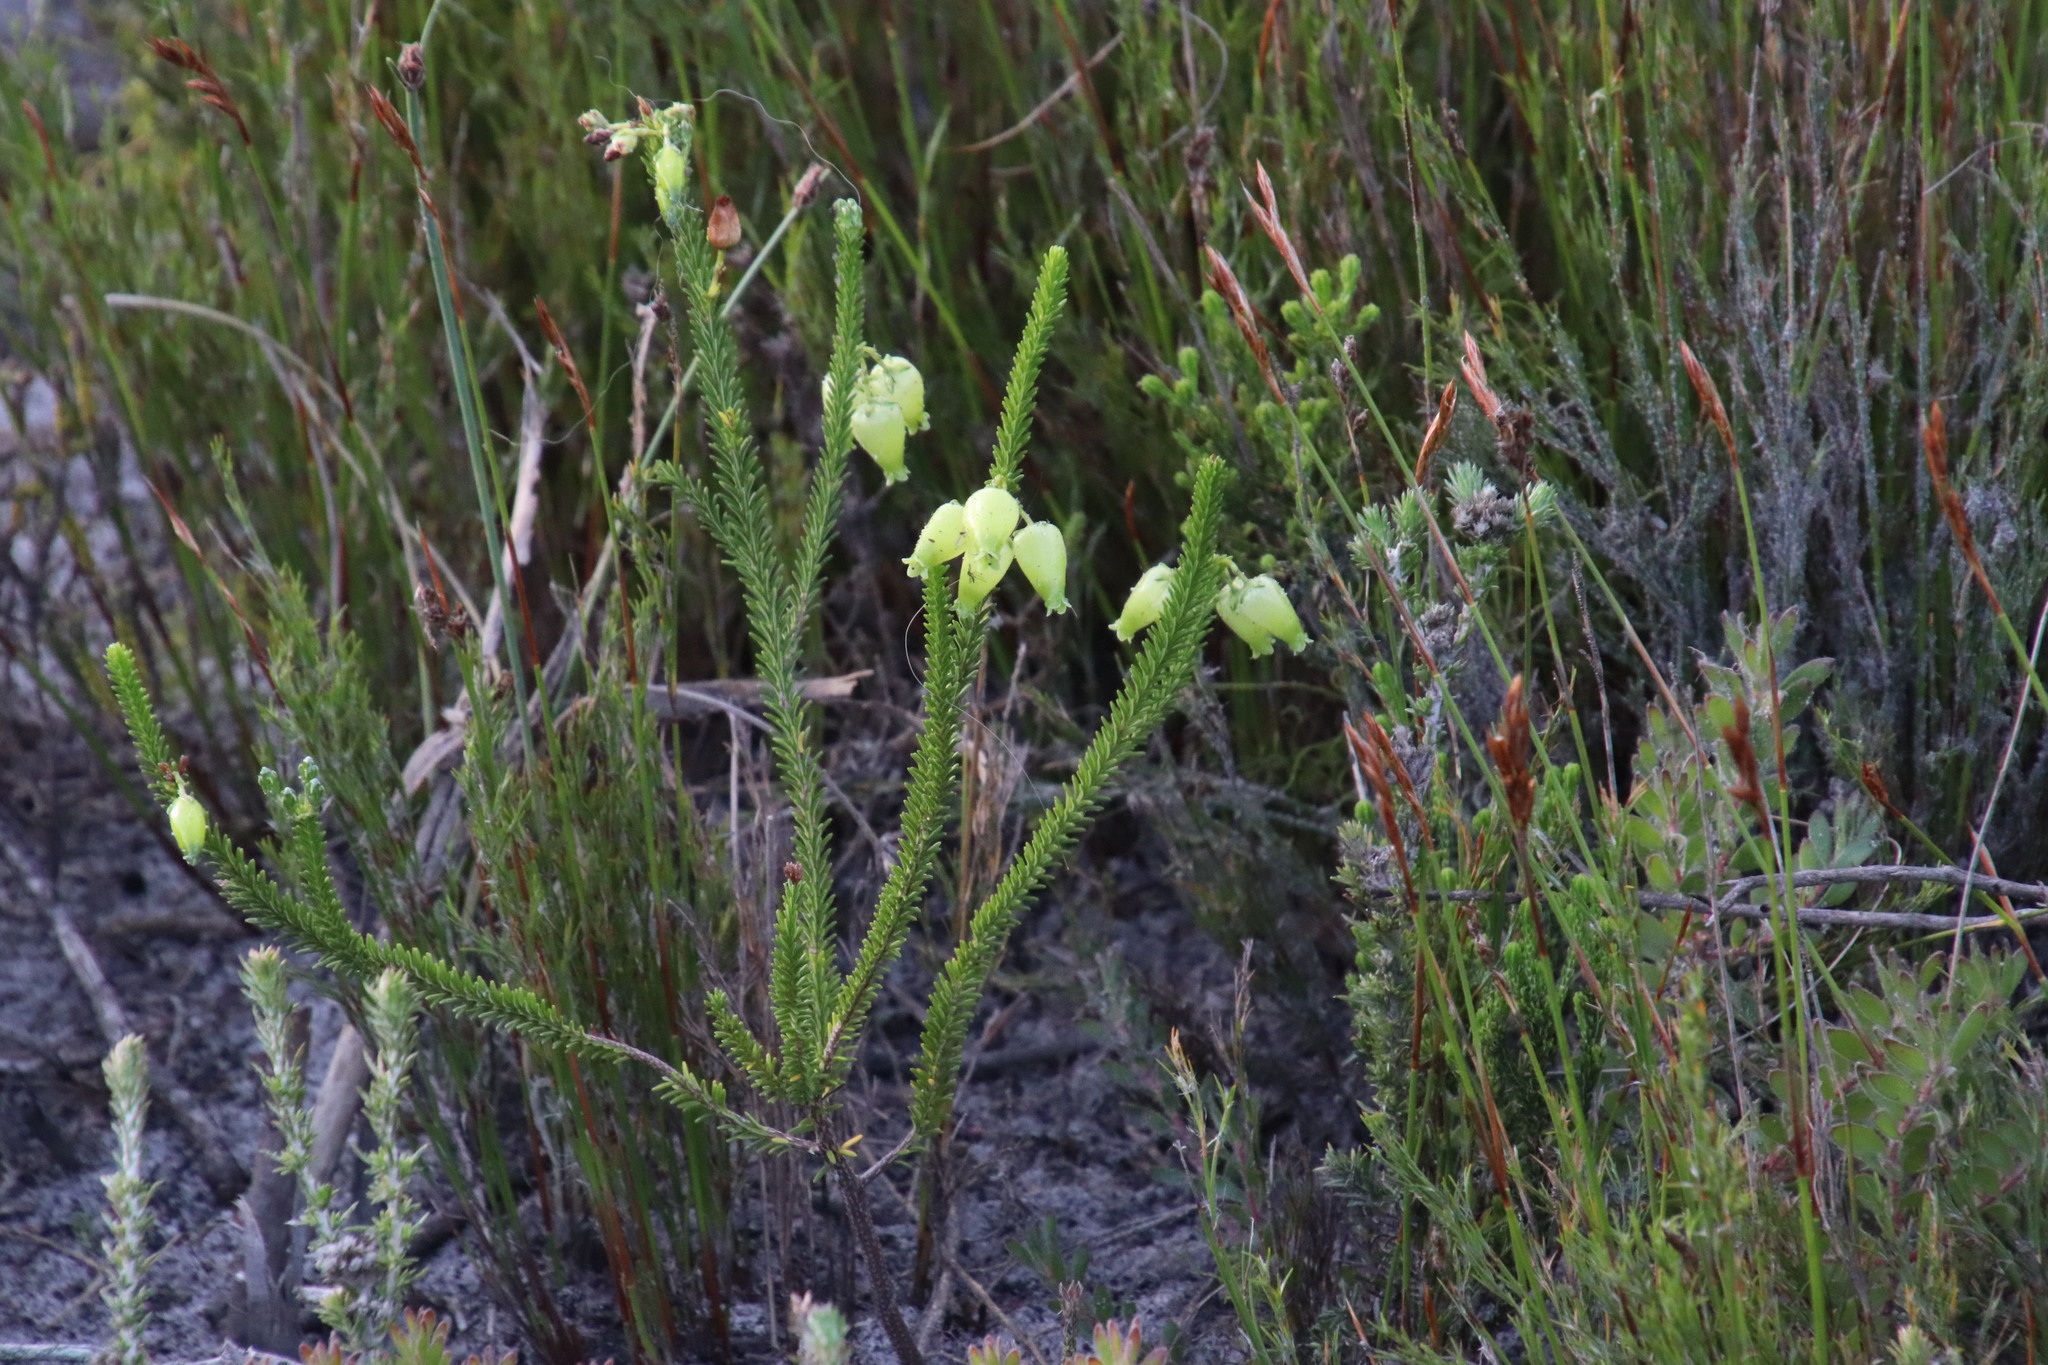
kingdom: Plantae
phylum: Tracheophyta
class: Magnoliopsida
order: Ericales
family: Ericaceae
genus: Erica
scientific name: Erica urna-viridis
